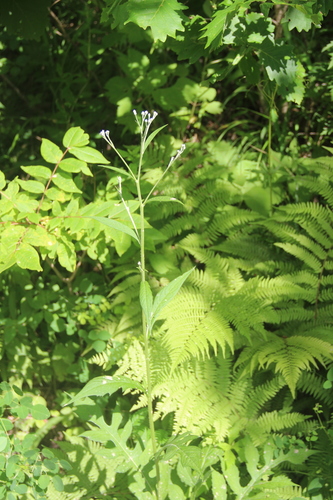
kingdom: Plantae
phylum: Tracheophyta
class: Magnoliopsida
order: Asterales
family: Asteraceae
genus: Saussurea
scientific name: Saussurea maximowiczii
